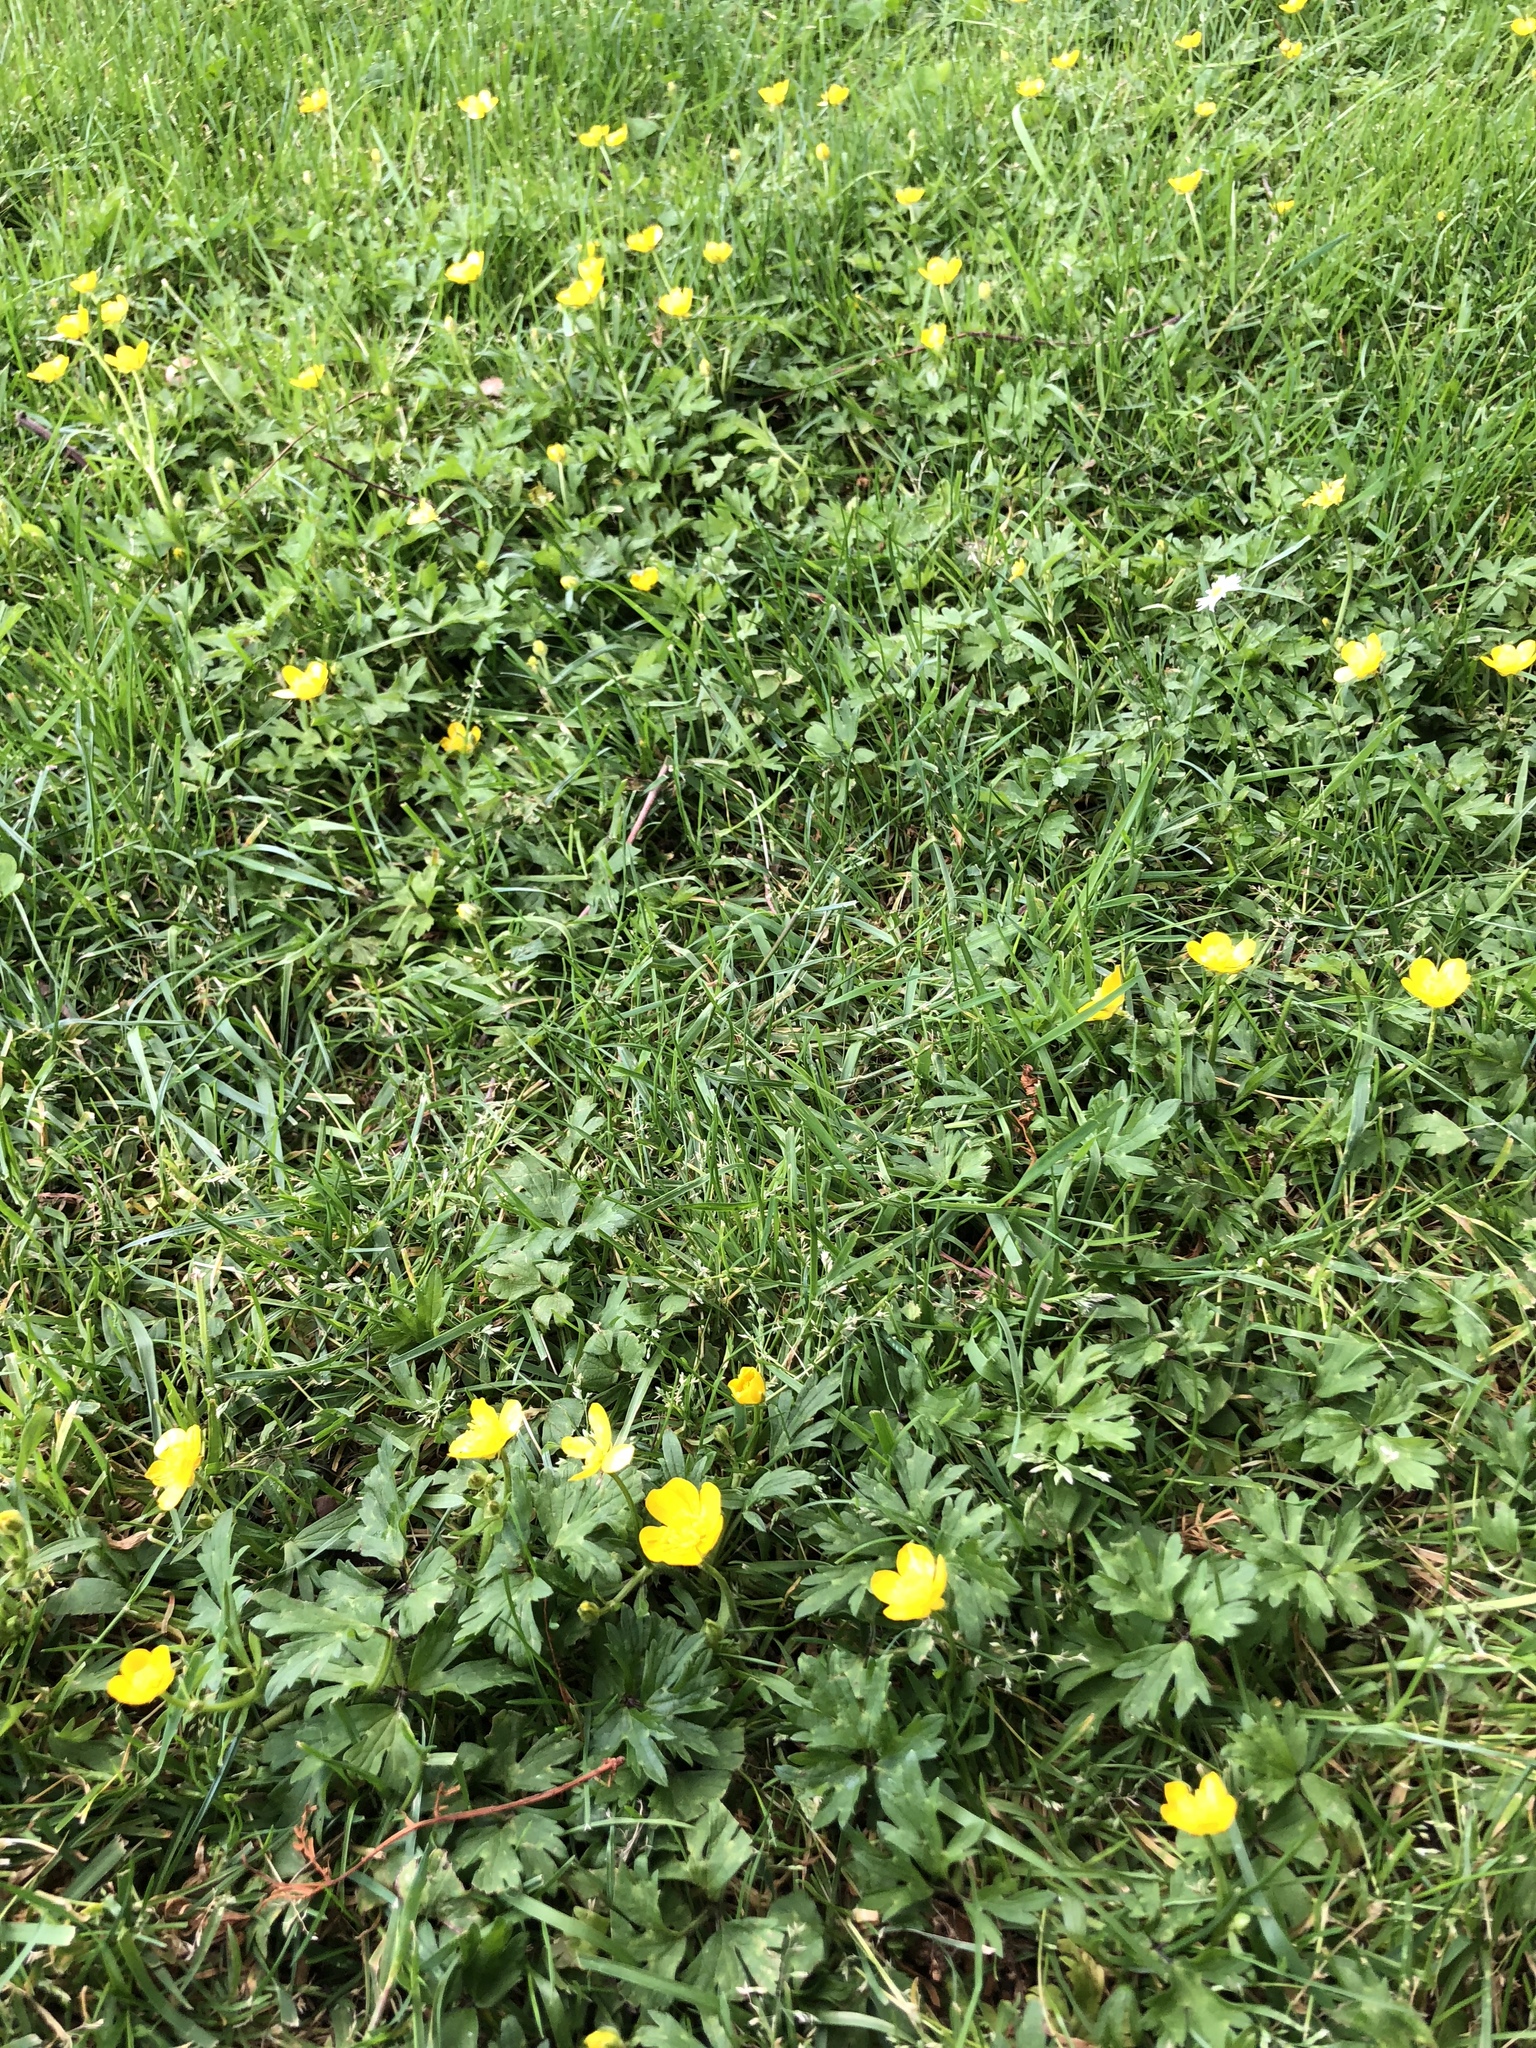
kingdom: Plantae
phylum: Tracheophyta
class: Magnoliopsida
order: Ranunculales
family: Ranunculaceae
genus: Ranunculus
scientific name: Ranunculus repens
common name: Creeping buttercup
